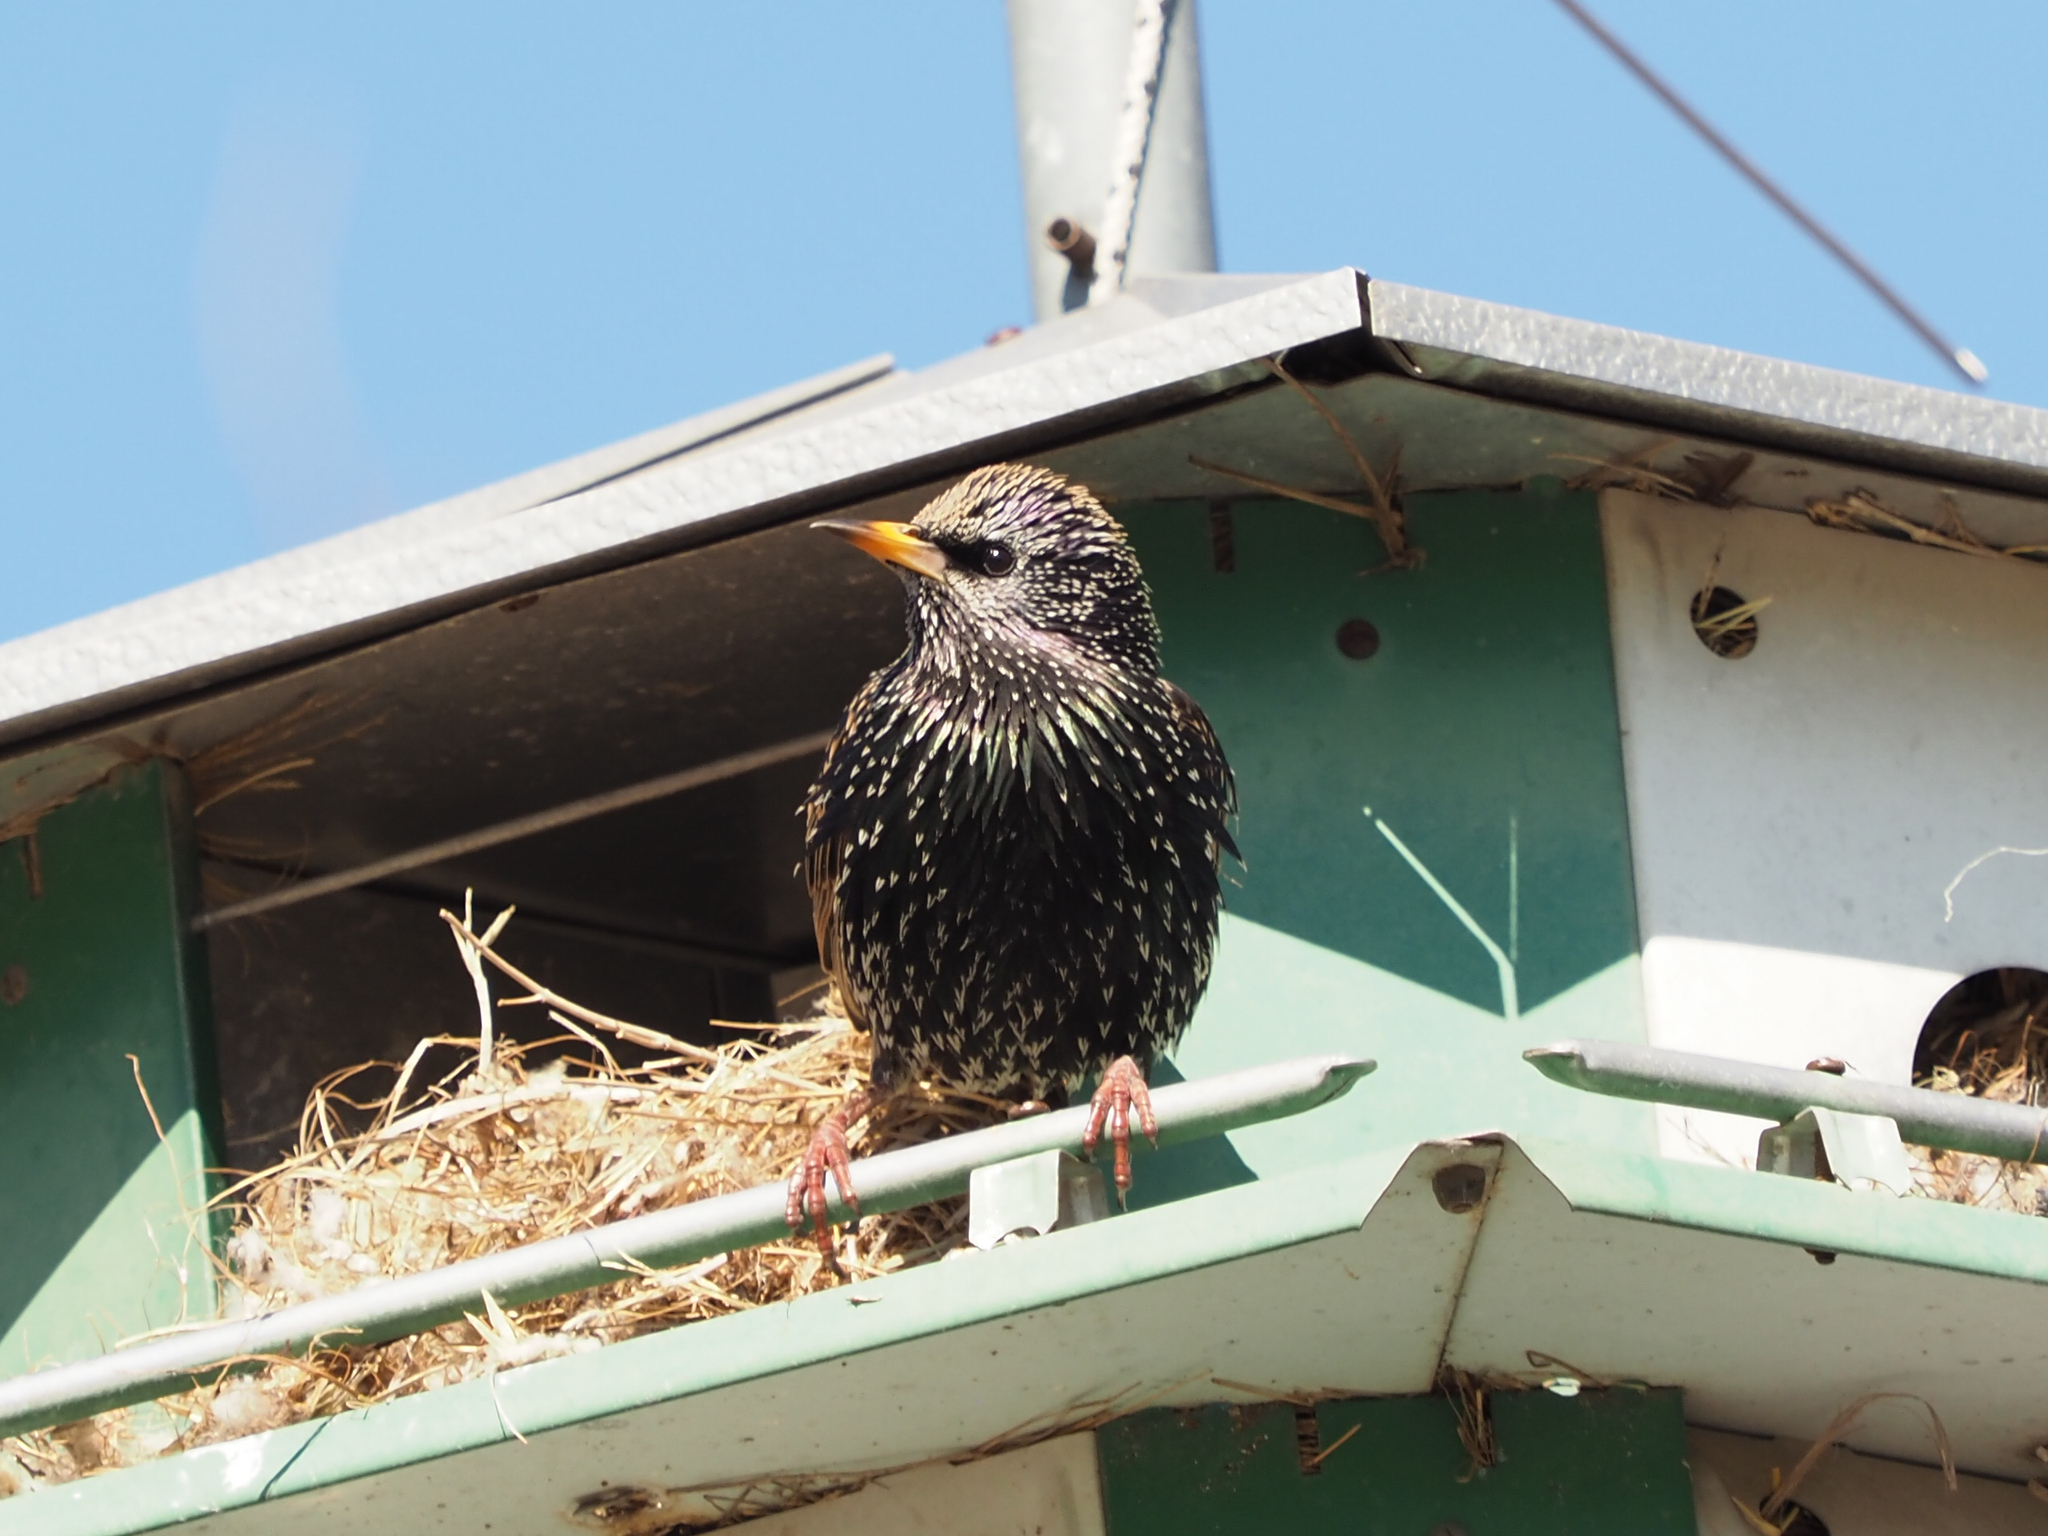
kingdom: Animalia
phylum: Chordata
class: Aves
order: Passeriformes
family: Sturnidae
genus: Sturnus
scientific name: Sturnus vulgaris
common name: Common starling
